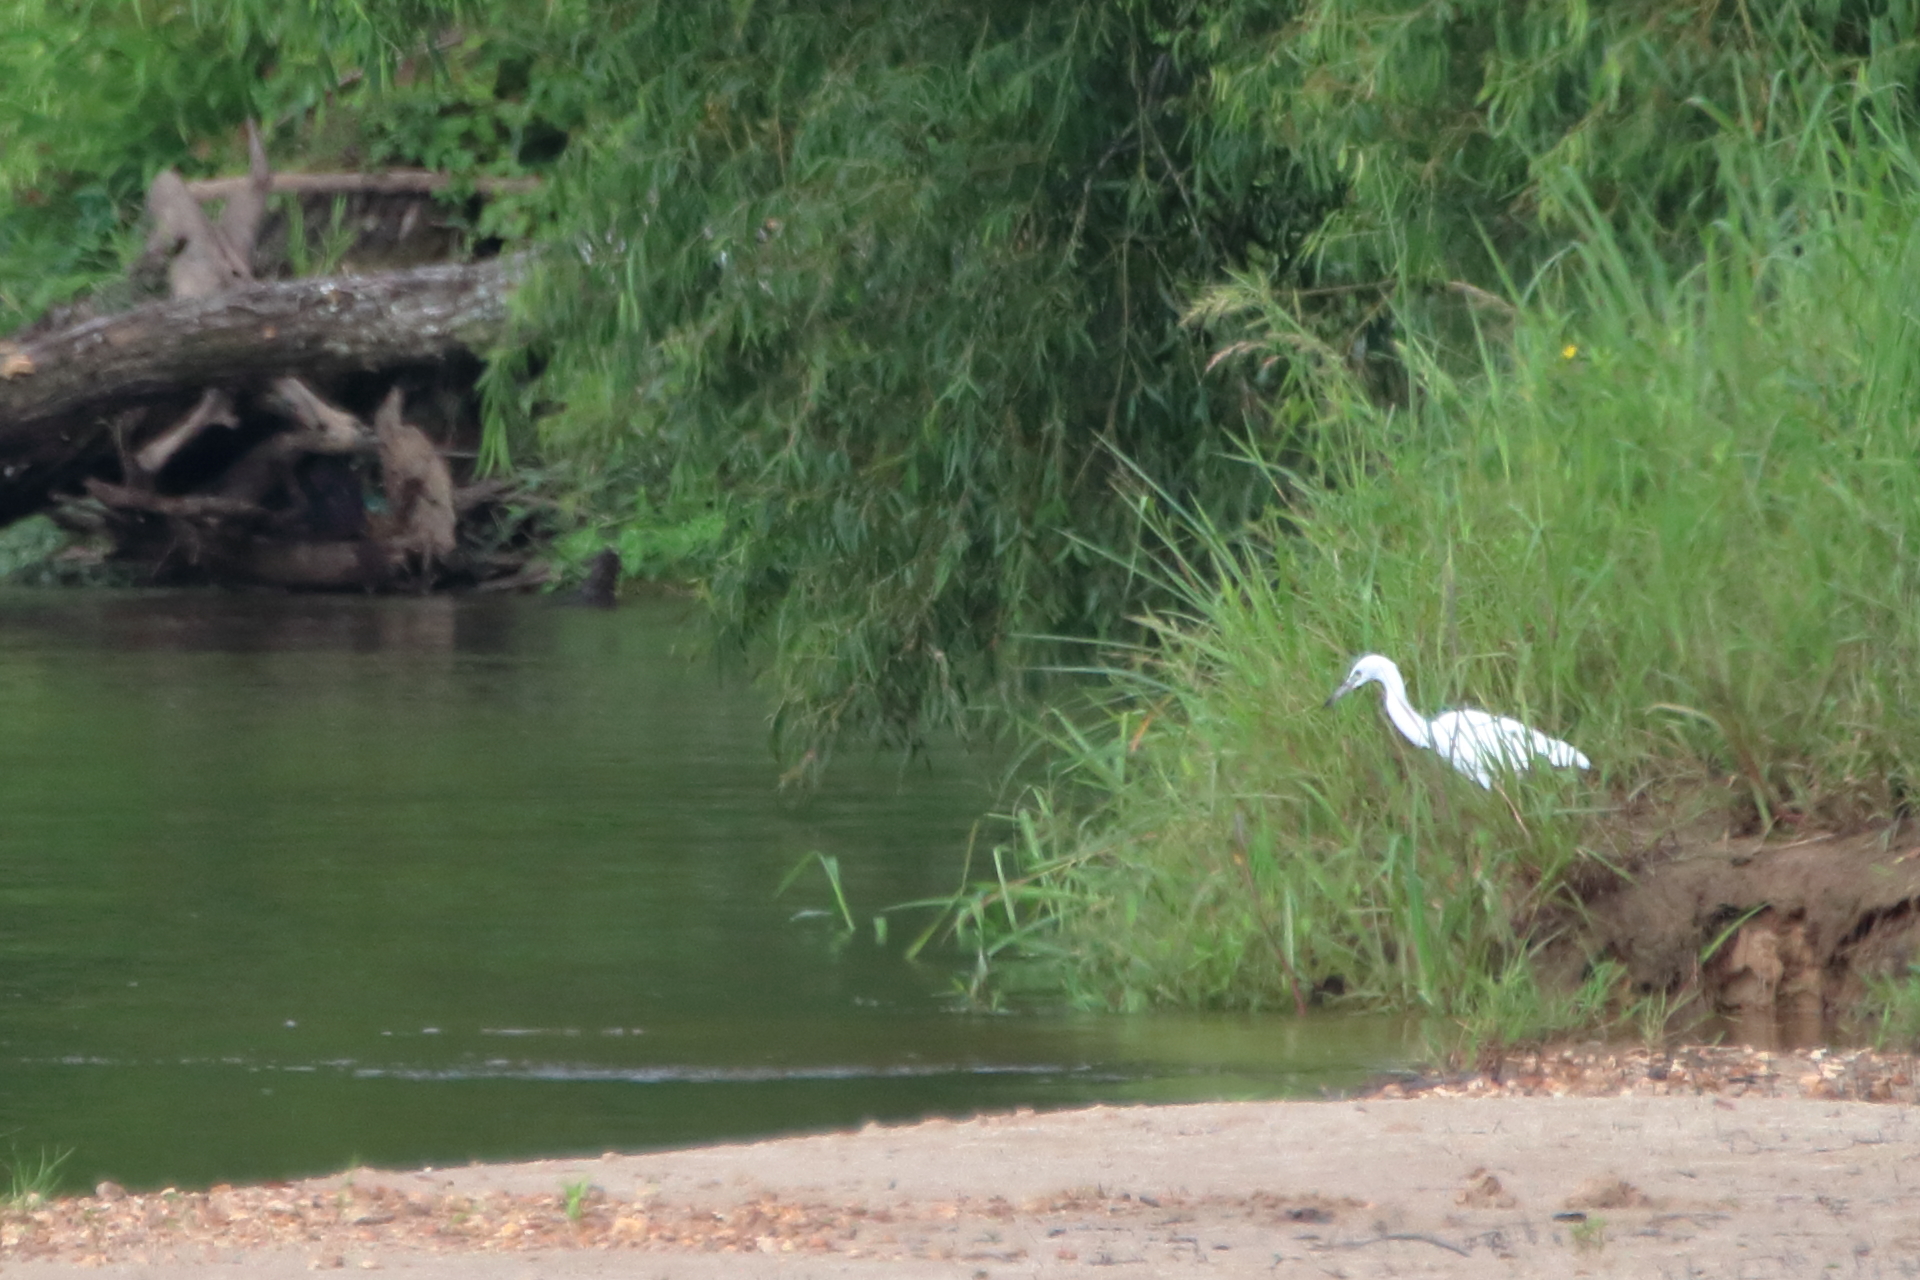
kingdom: Animalia
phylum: Chordata
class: Aves
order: Pelecaniformes
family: Ardeidae
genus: Egretta
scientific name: Egretta caerulea
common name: Little blue heron
